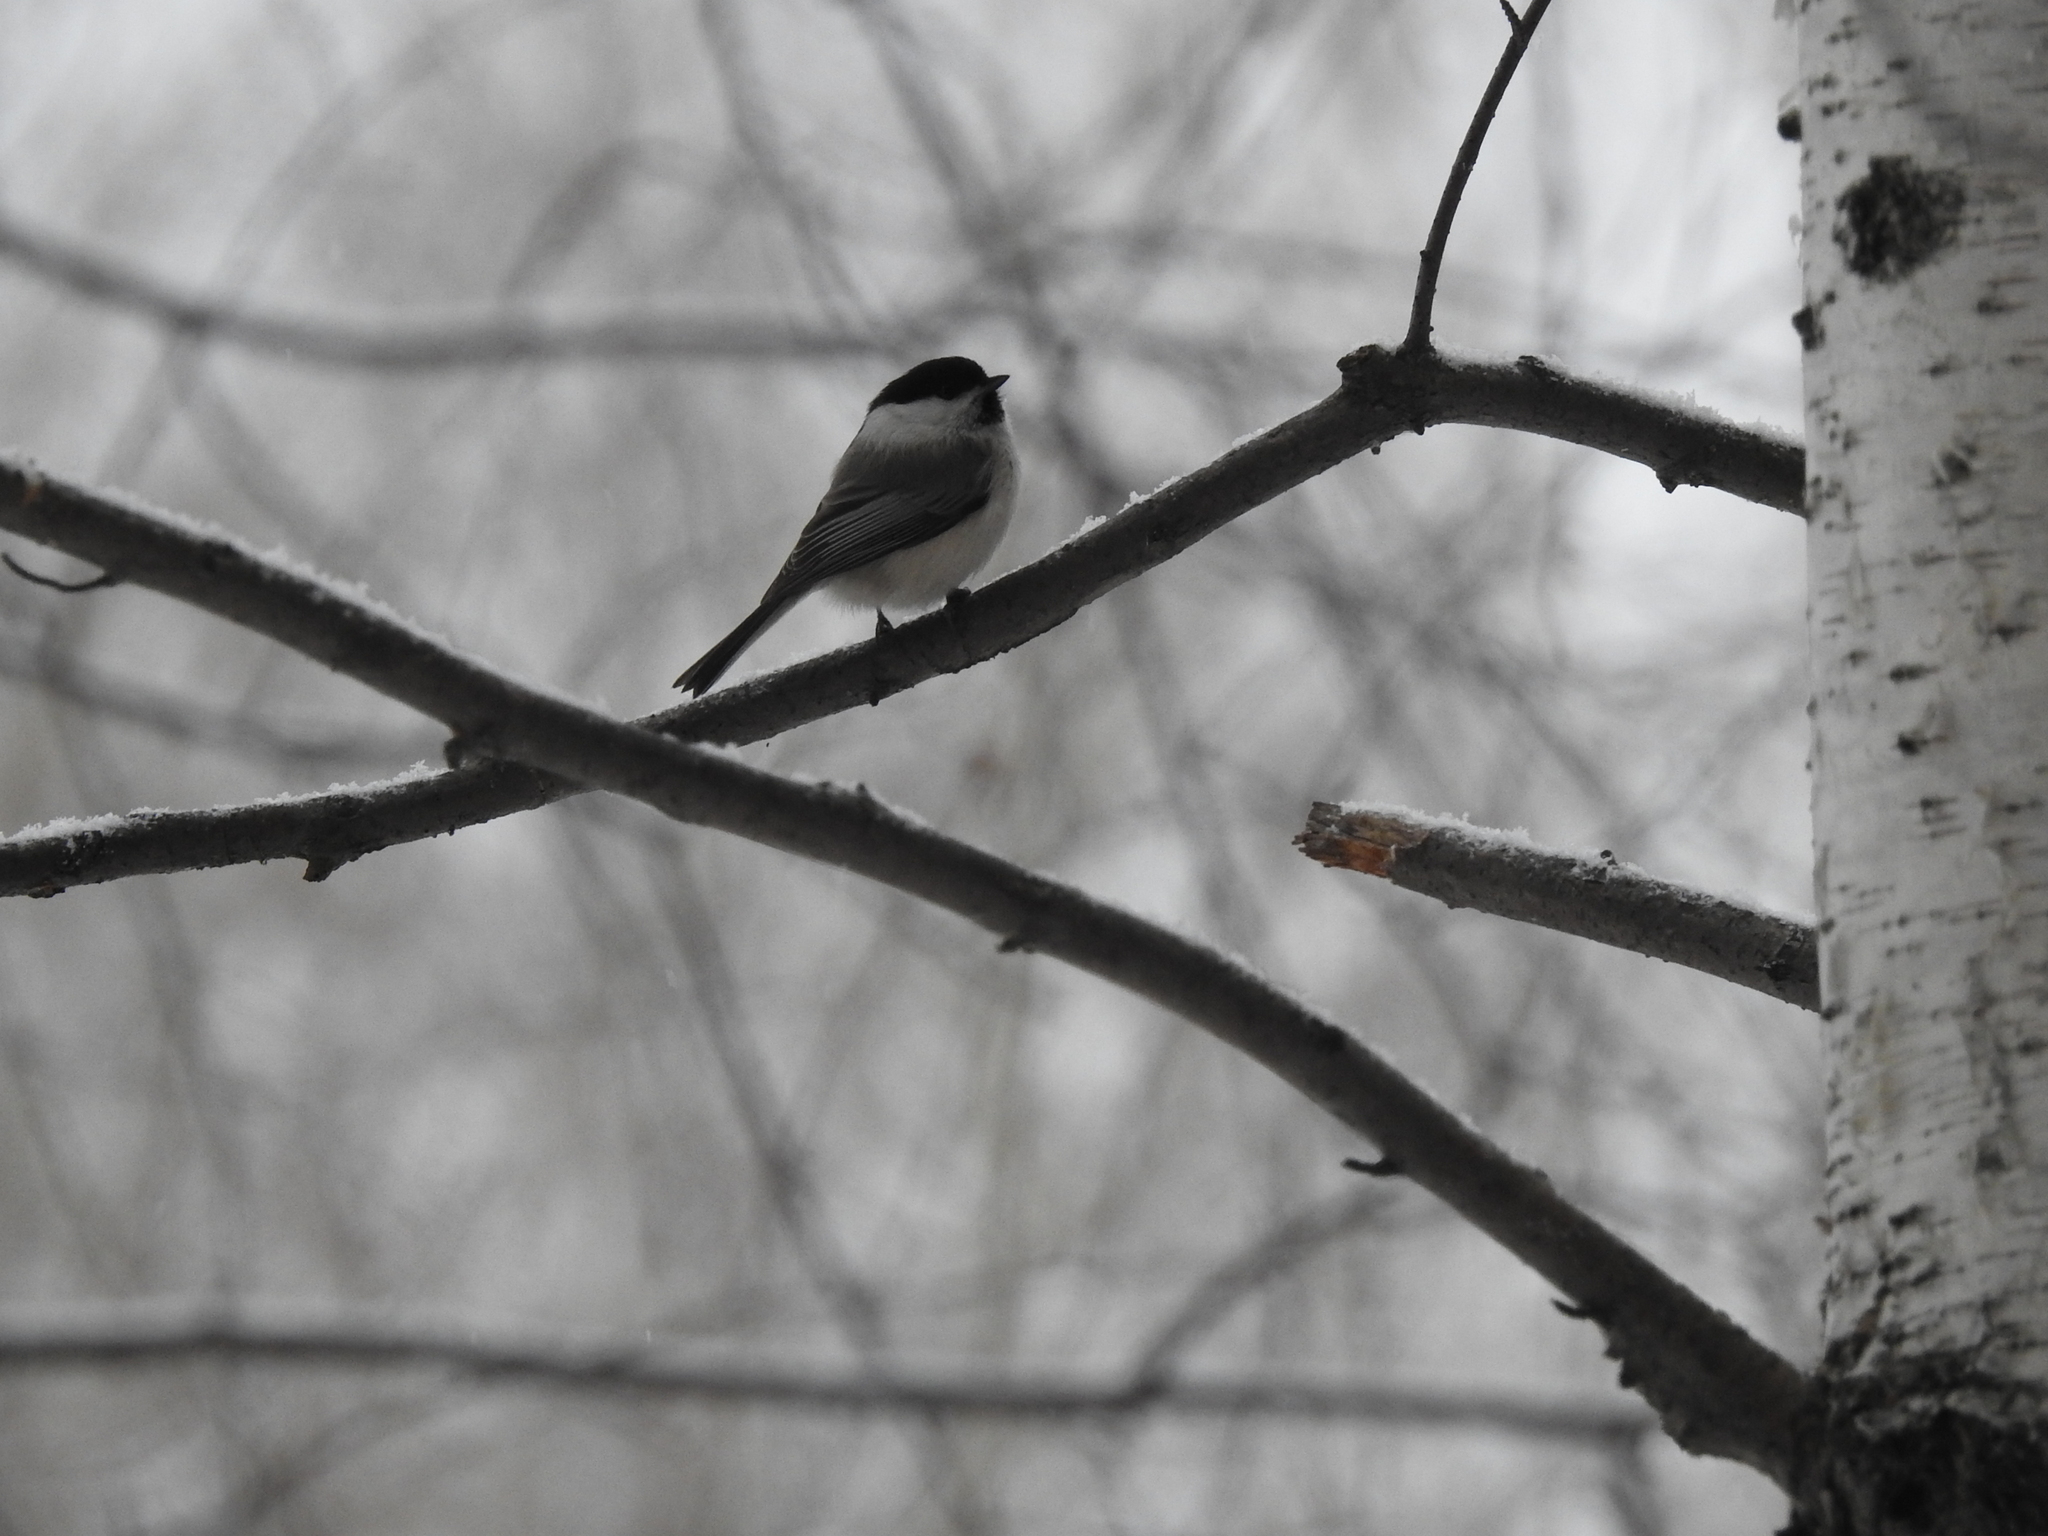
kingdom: Animalia
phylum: Chordata
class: Aves
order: Passeriformes
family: Paridae
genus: Poecile
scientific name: Poecile montanus
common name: Willow tit
